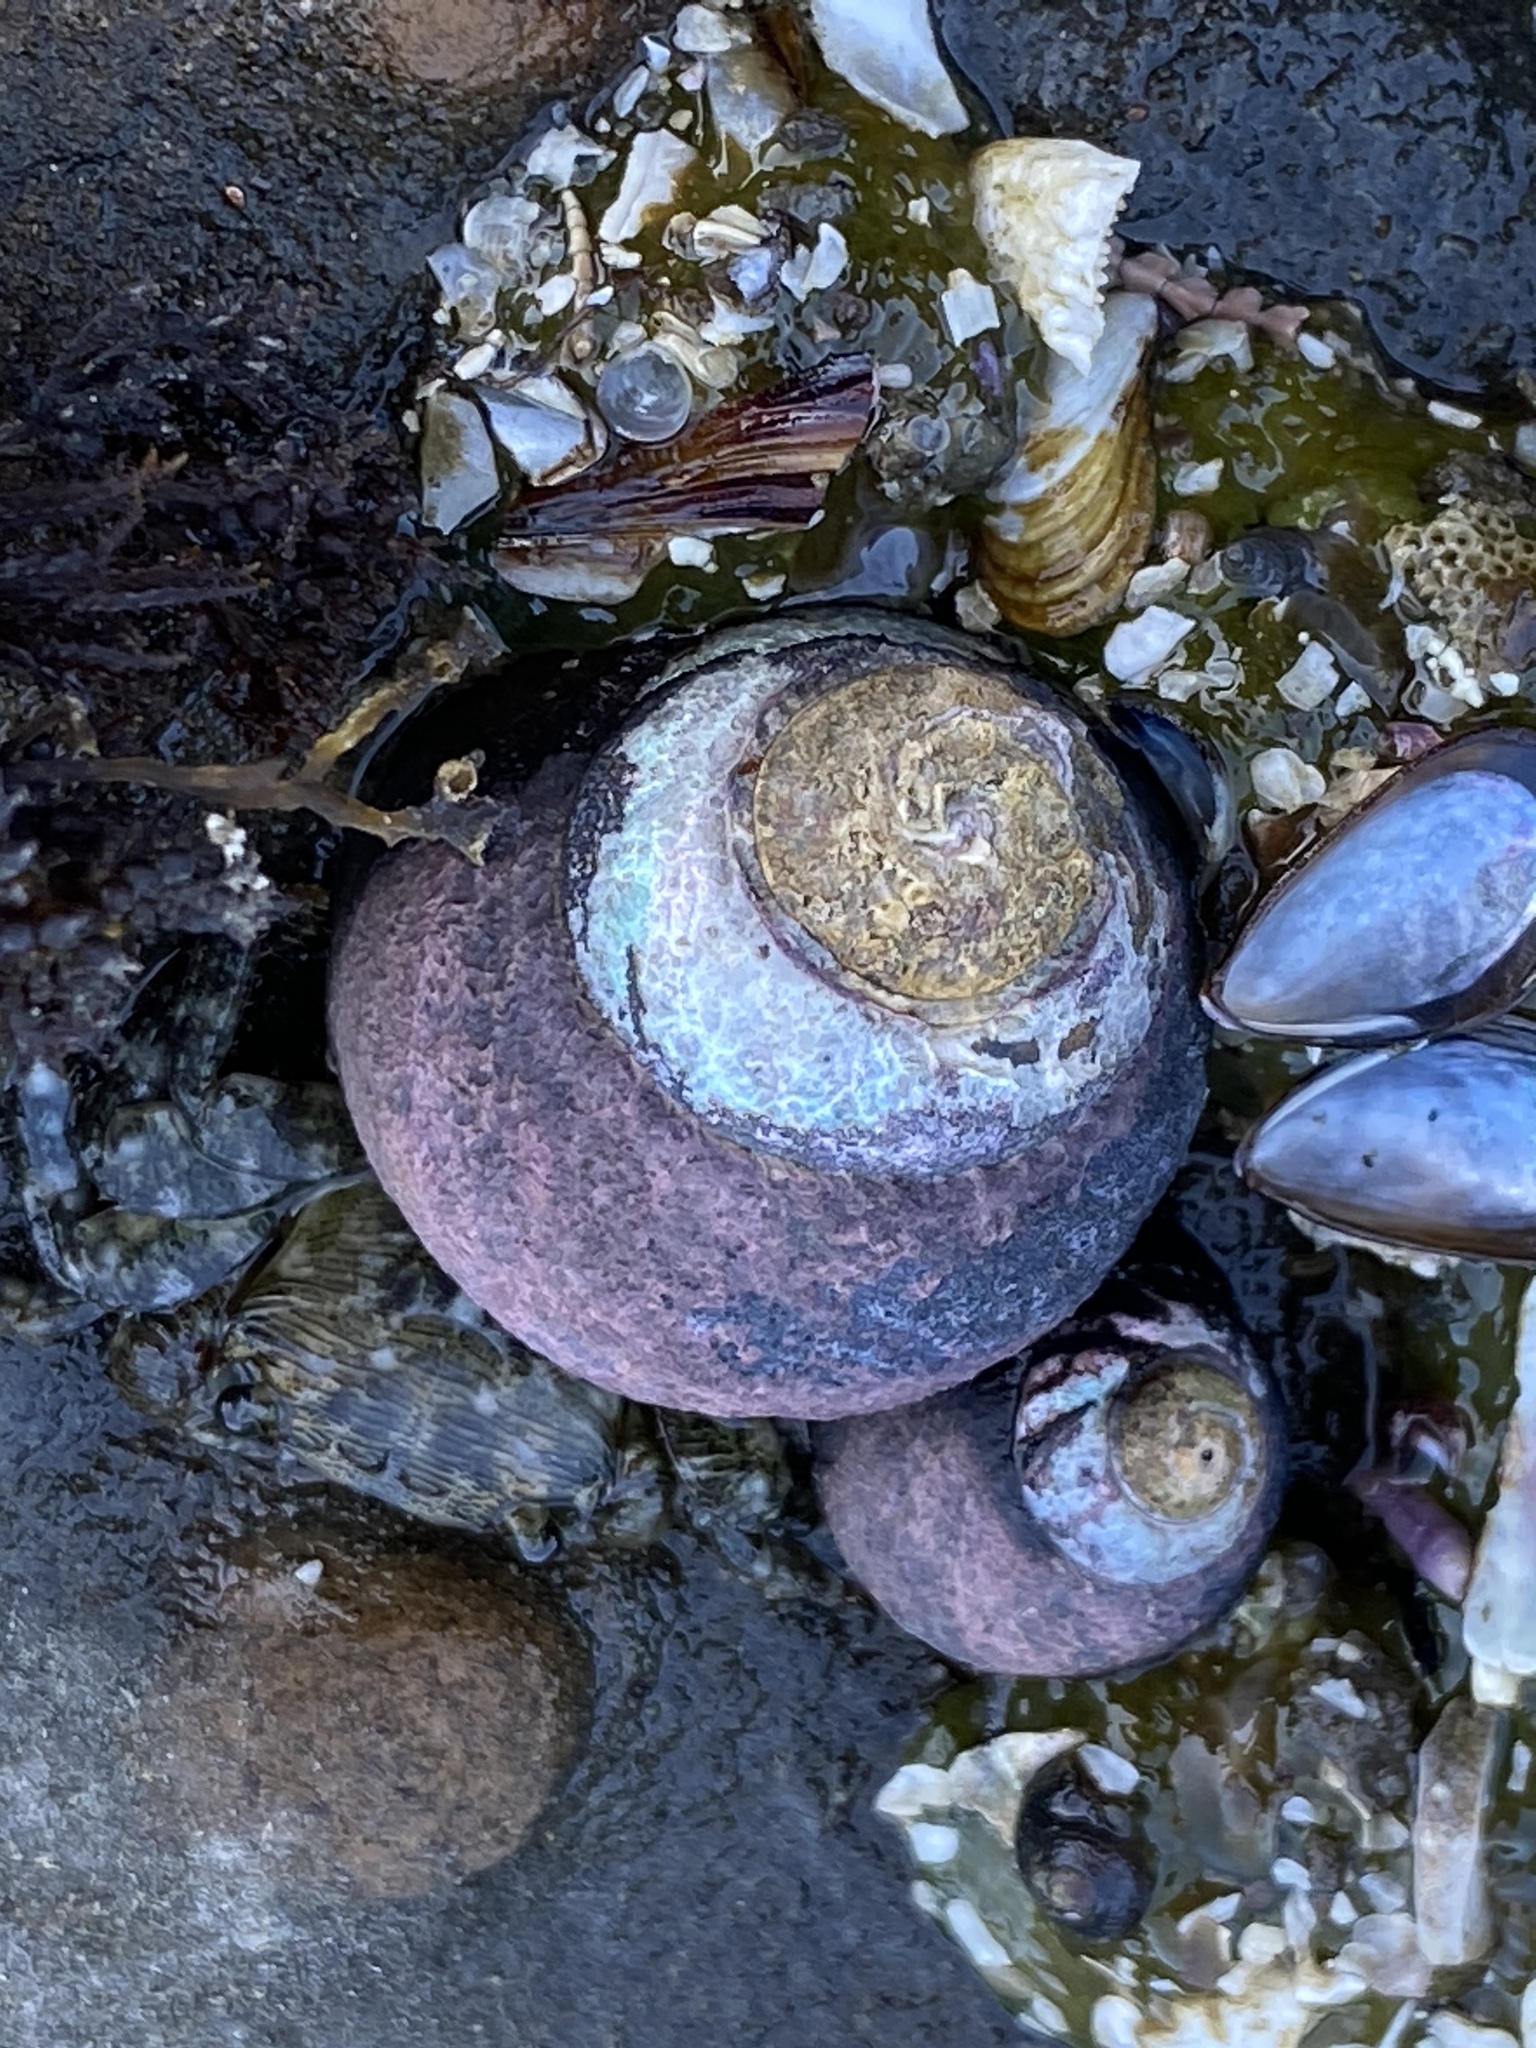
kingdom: Animalia
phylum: Mollusca
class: Gastropoda
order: Trochida
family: Tegulidae
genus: Tegula
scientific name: Tegula funebralis
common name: Black tegula
